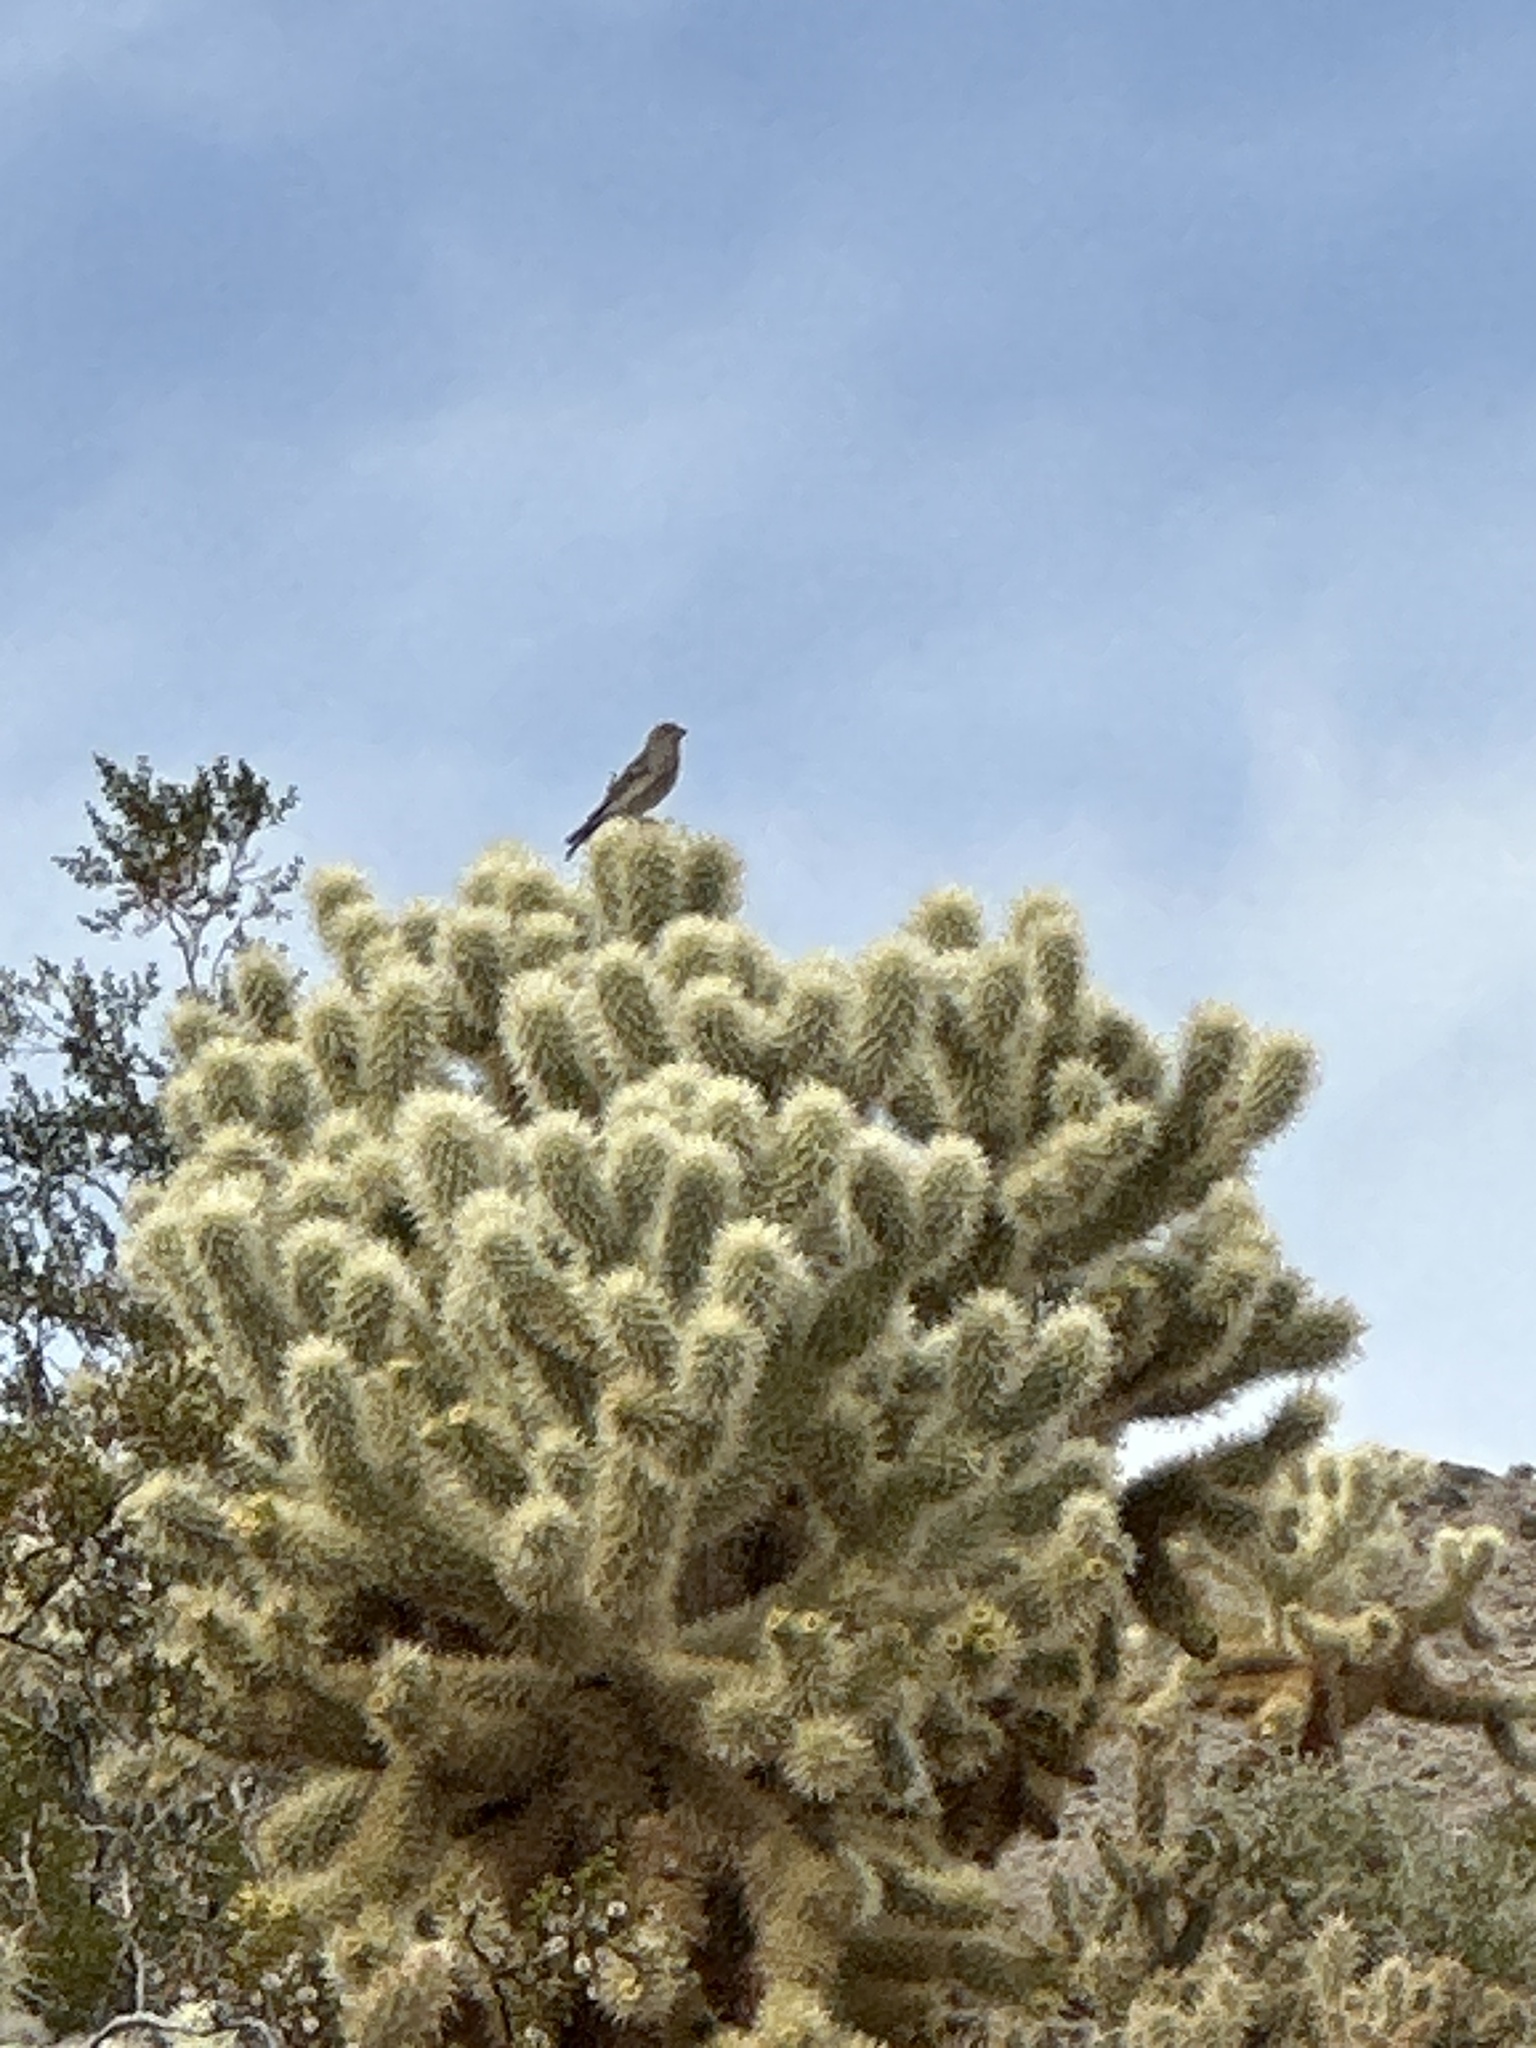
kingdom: Animalia
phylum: Chordata
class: Aves
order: Passeriformes
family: Fringillidae
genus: Haemorhous
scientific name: Haemorhous mexicanus
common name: House finch
